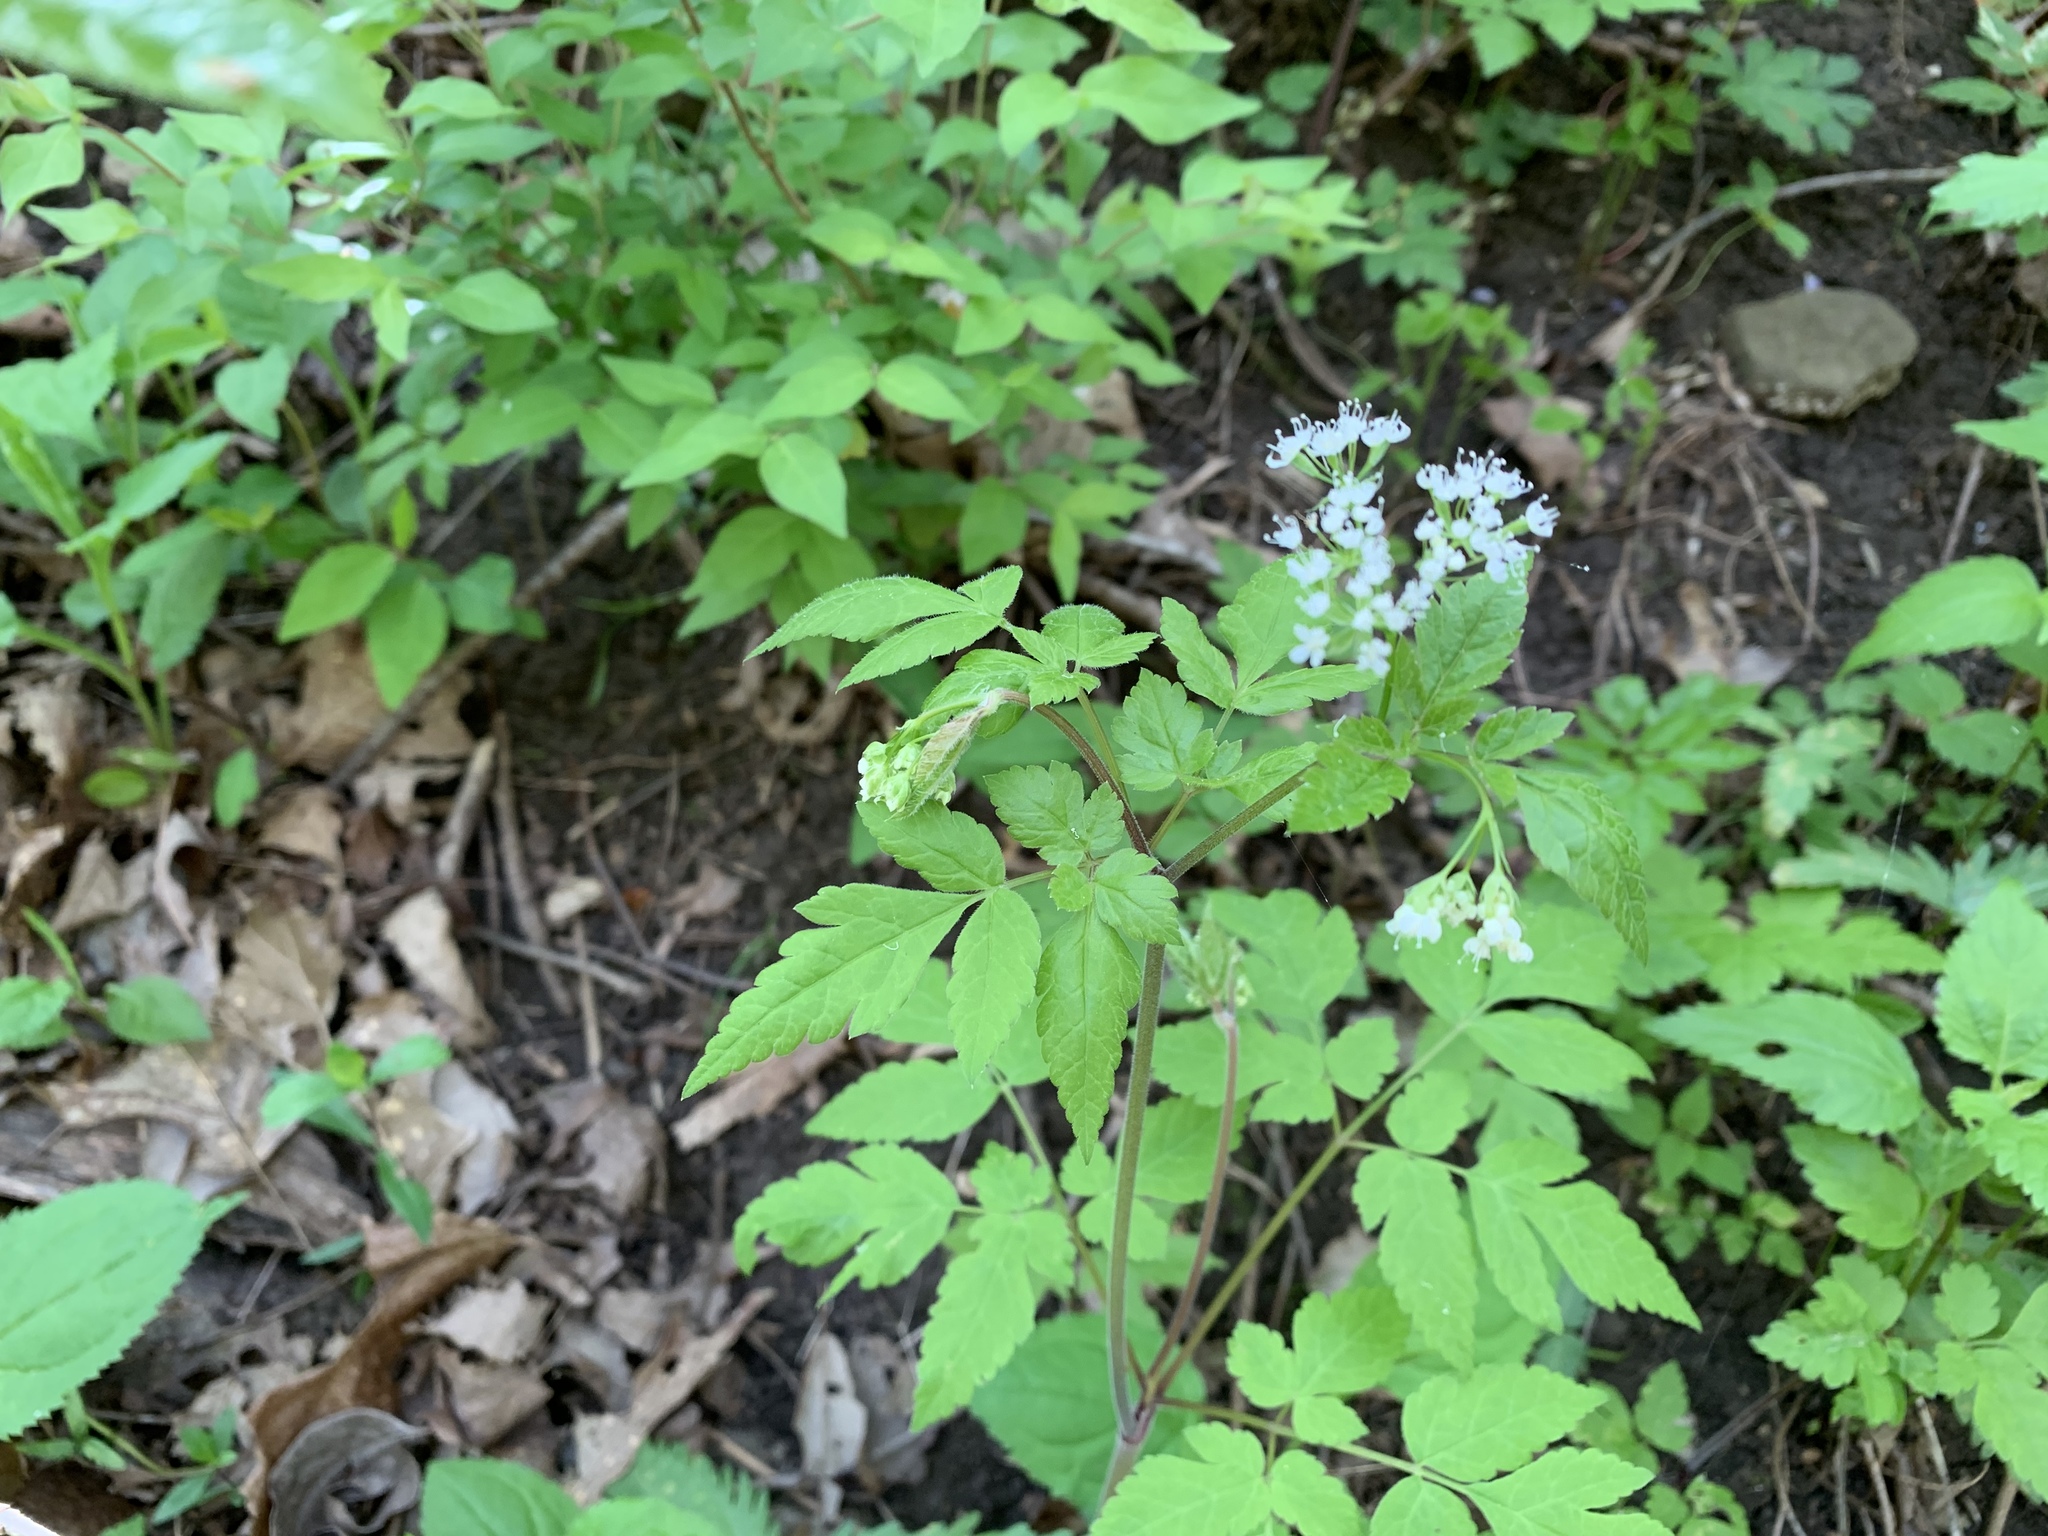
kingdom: Plantae
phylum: Tracheophyta
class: Magnoliopsida
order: Apiales
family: Apiaceae
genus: Osmorhiza
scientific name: Osmorhiza longistylis
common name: Smooth sweet cicely
